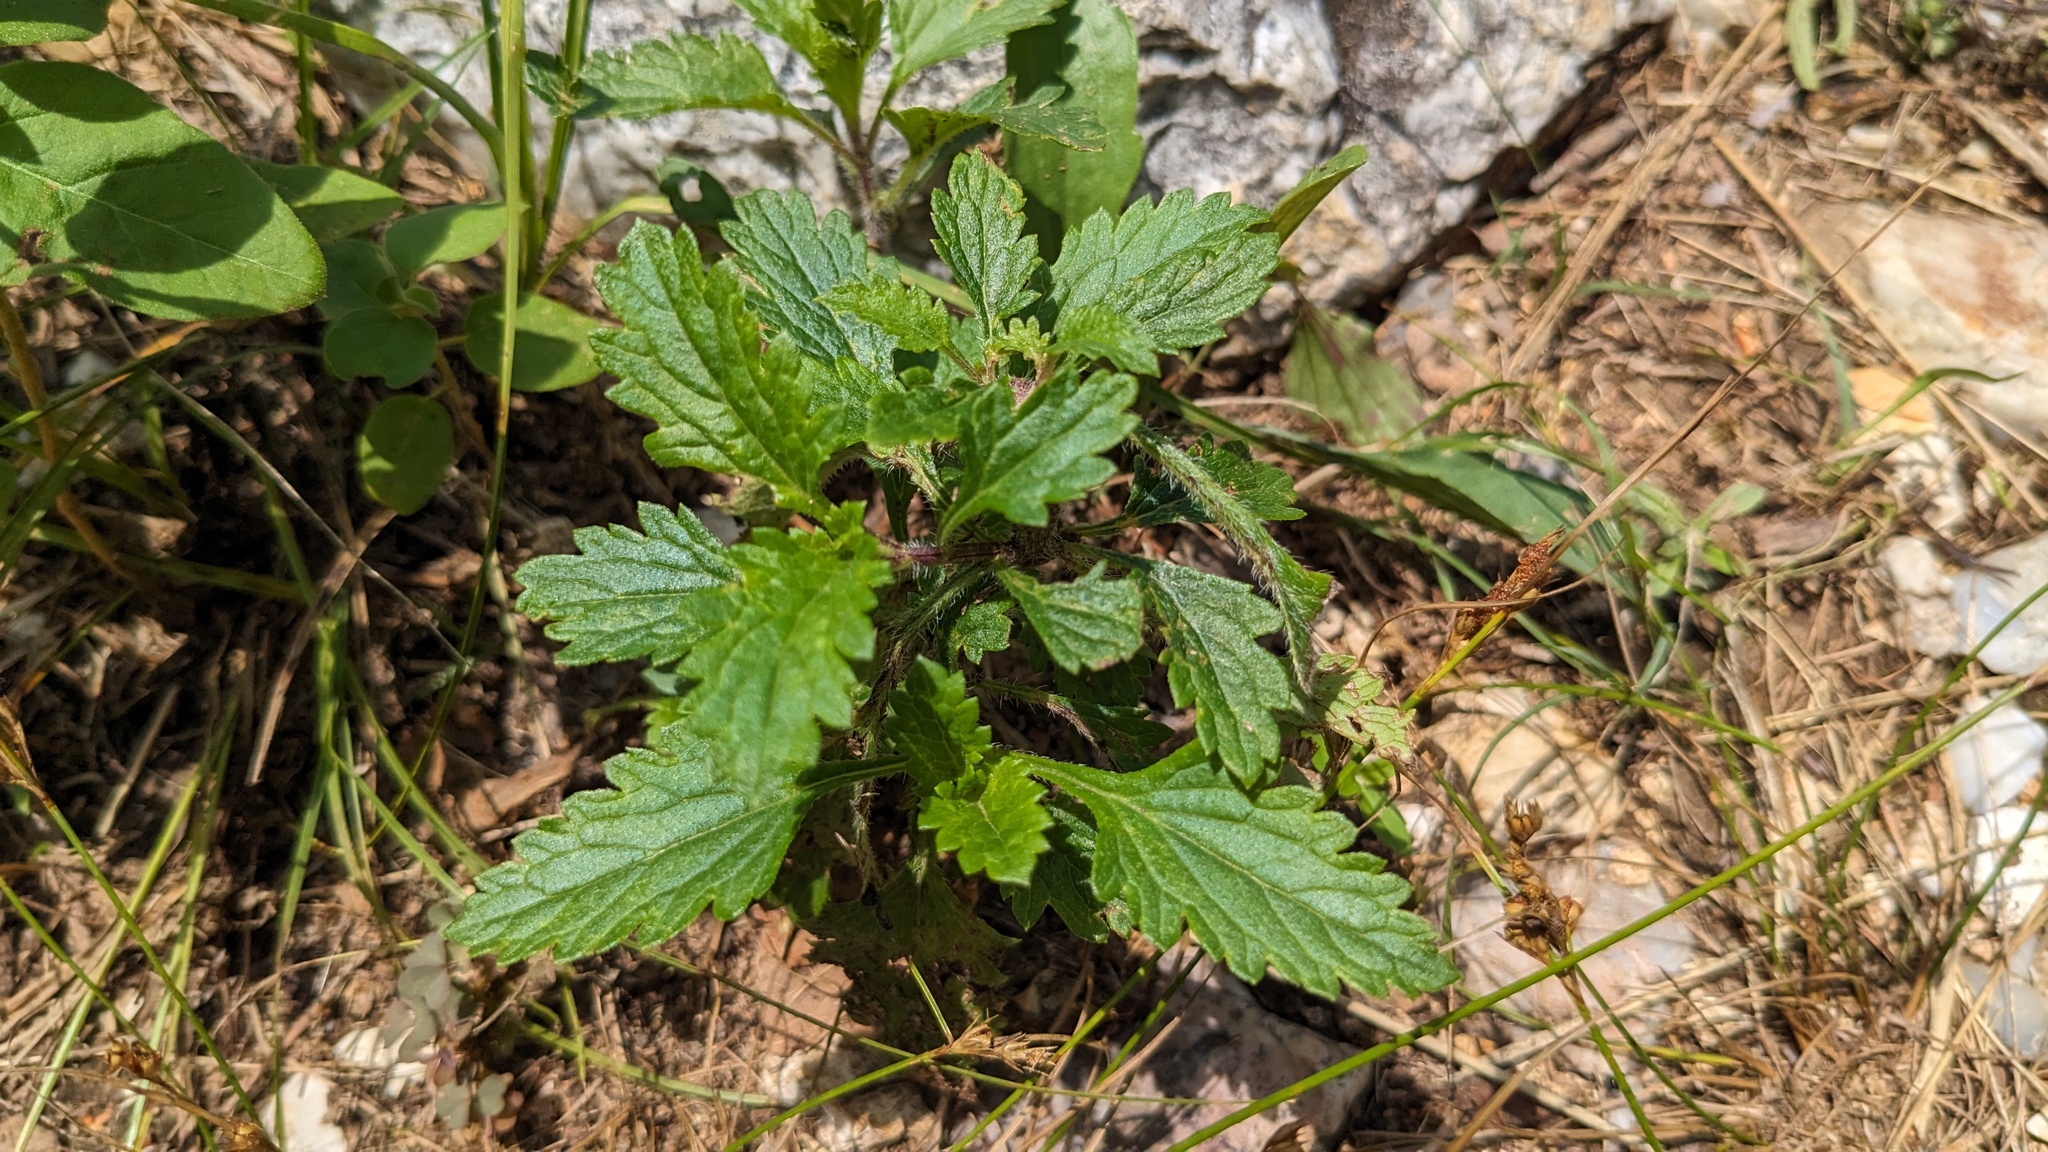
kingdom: Plantae
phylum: Tracheophyta
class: Magnoliopsida
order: Lamiales
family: Verbenaceae
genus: Verbena
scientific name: Verbena canadensis
